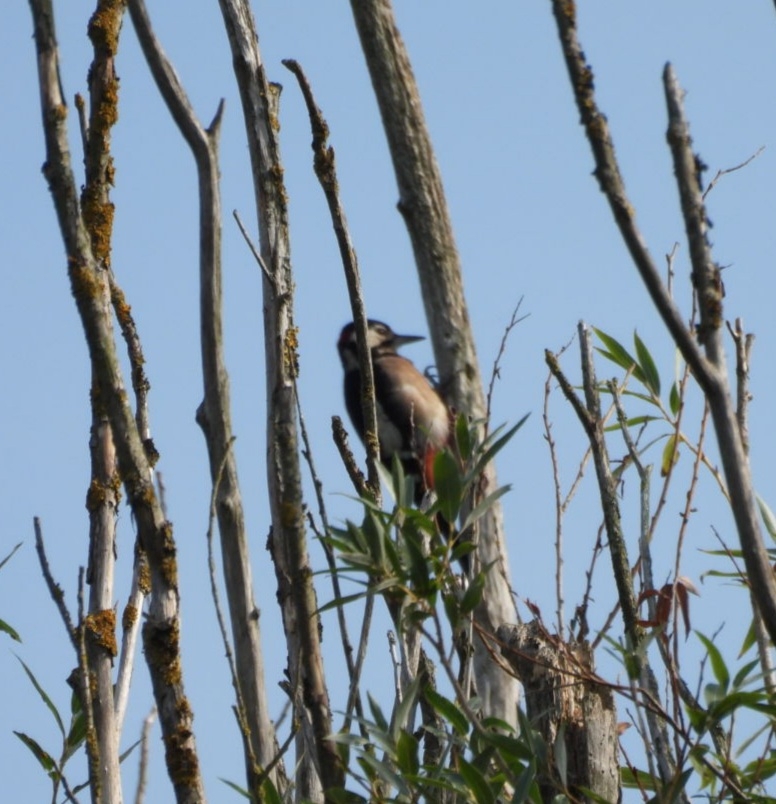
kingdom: Animalia
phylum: Chordata
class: Aves
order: Piciformes
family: Picidae
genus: Dendrocopos
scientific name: Dendrocopos major
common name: Great spotted woodpecker
